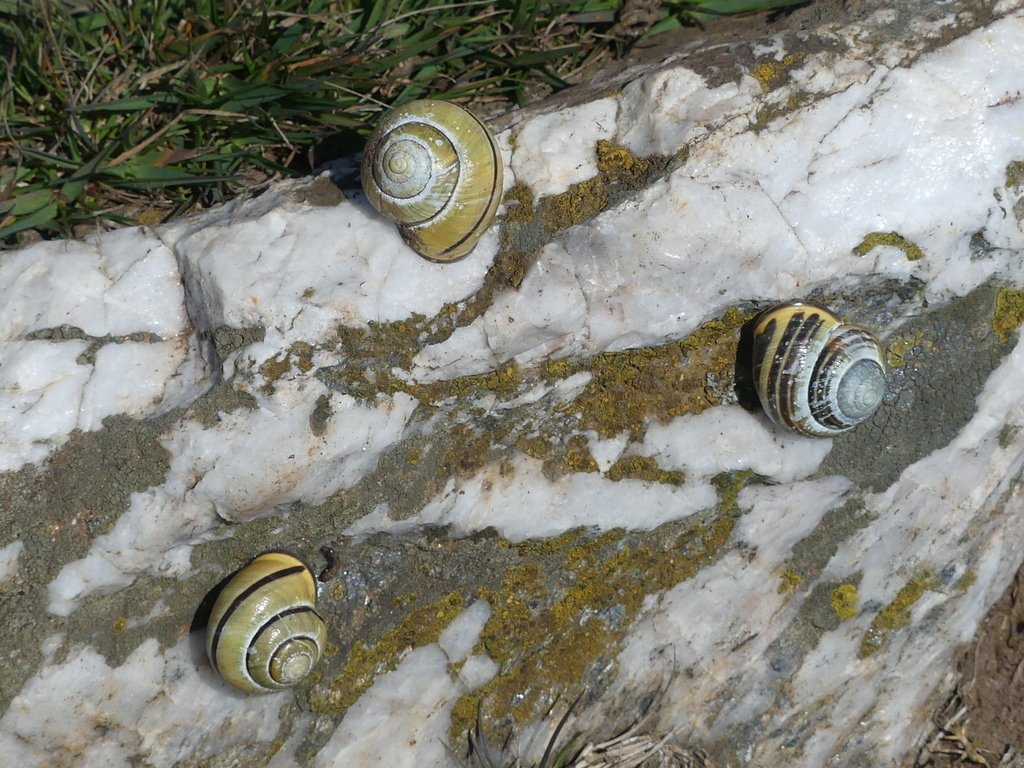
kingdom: Animalia
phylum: Mollusca
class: Gastropoda
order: Stylommatophora
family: Helicidae
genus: Cepaea
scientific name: Cepaea nemoralis
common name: Grovesnail
